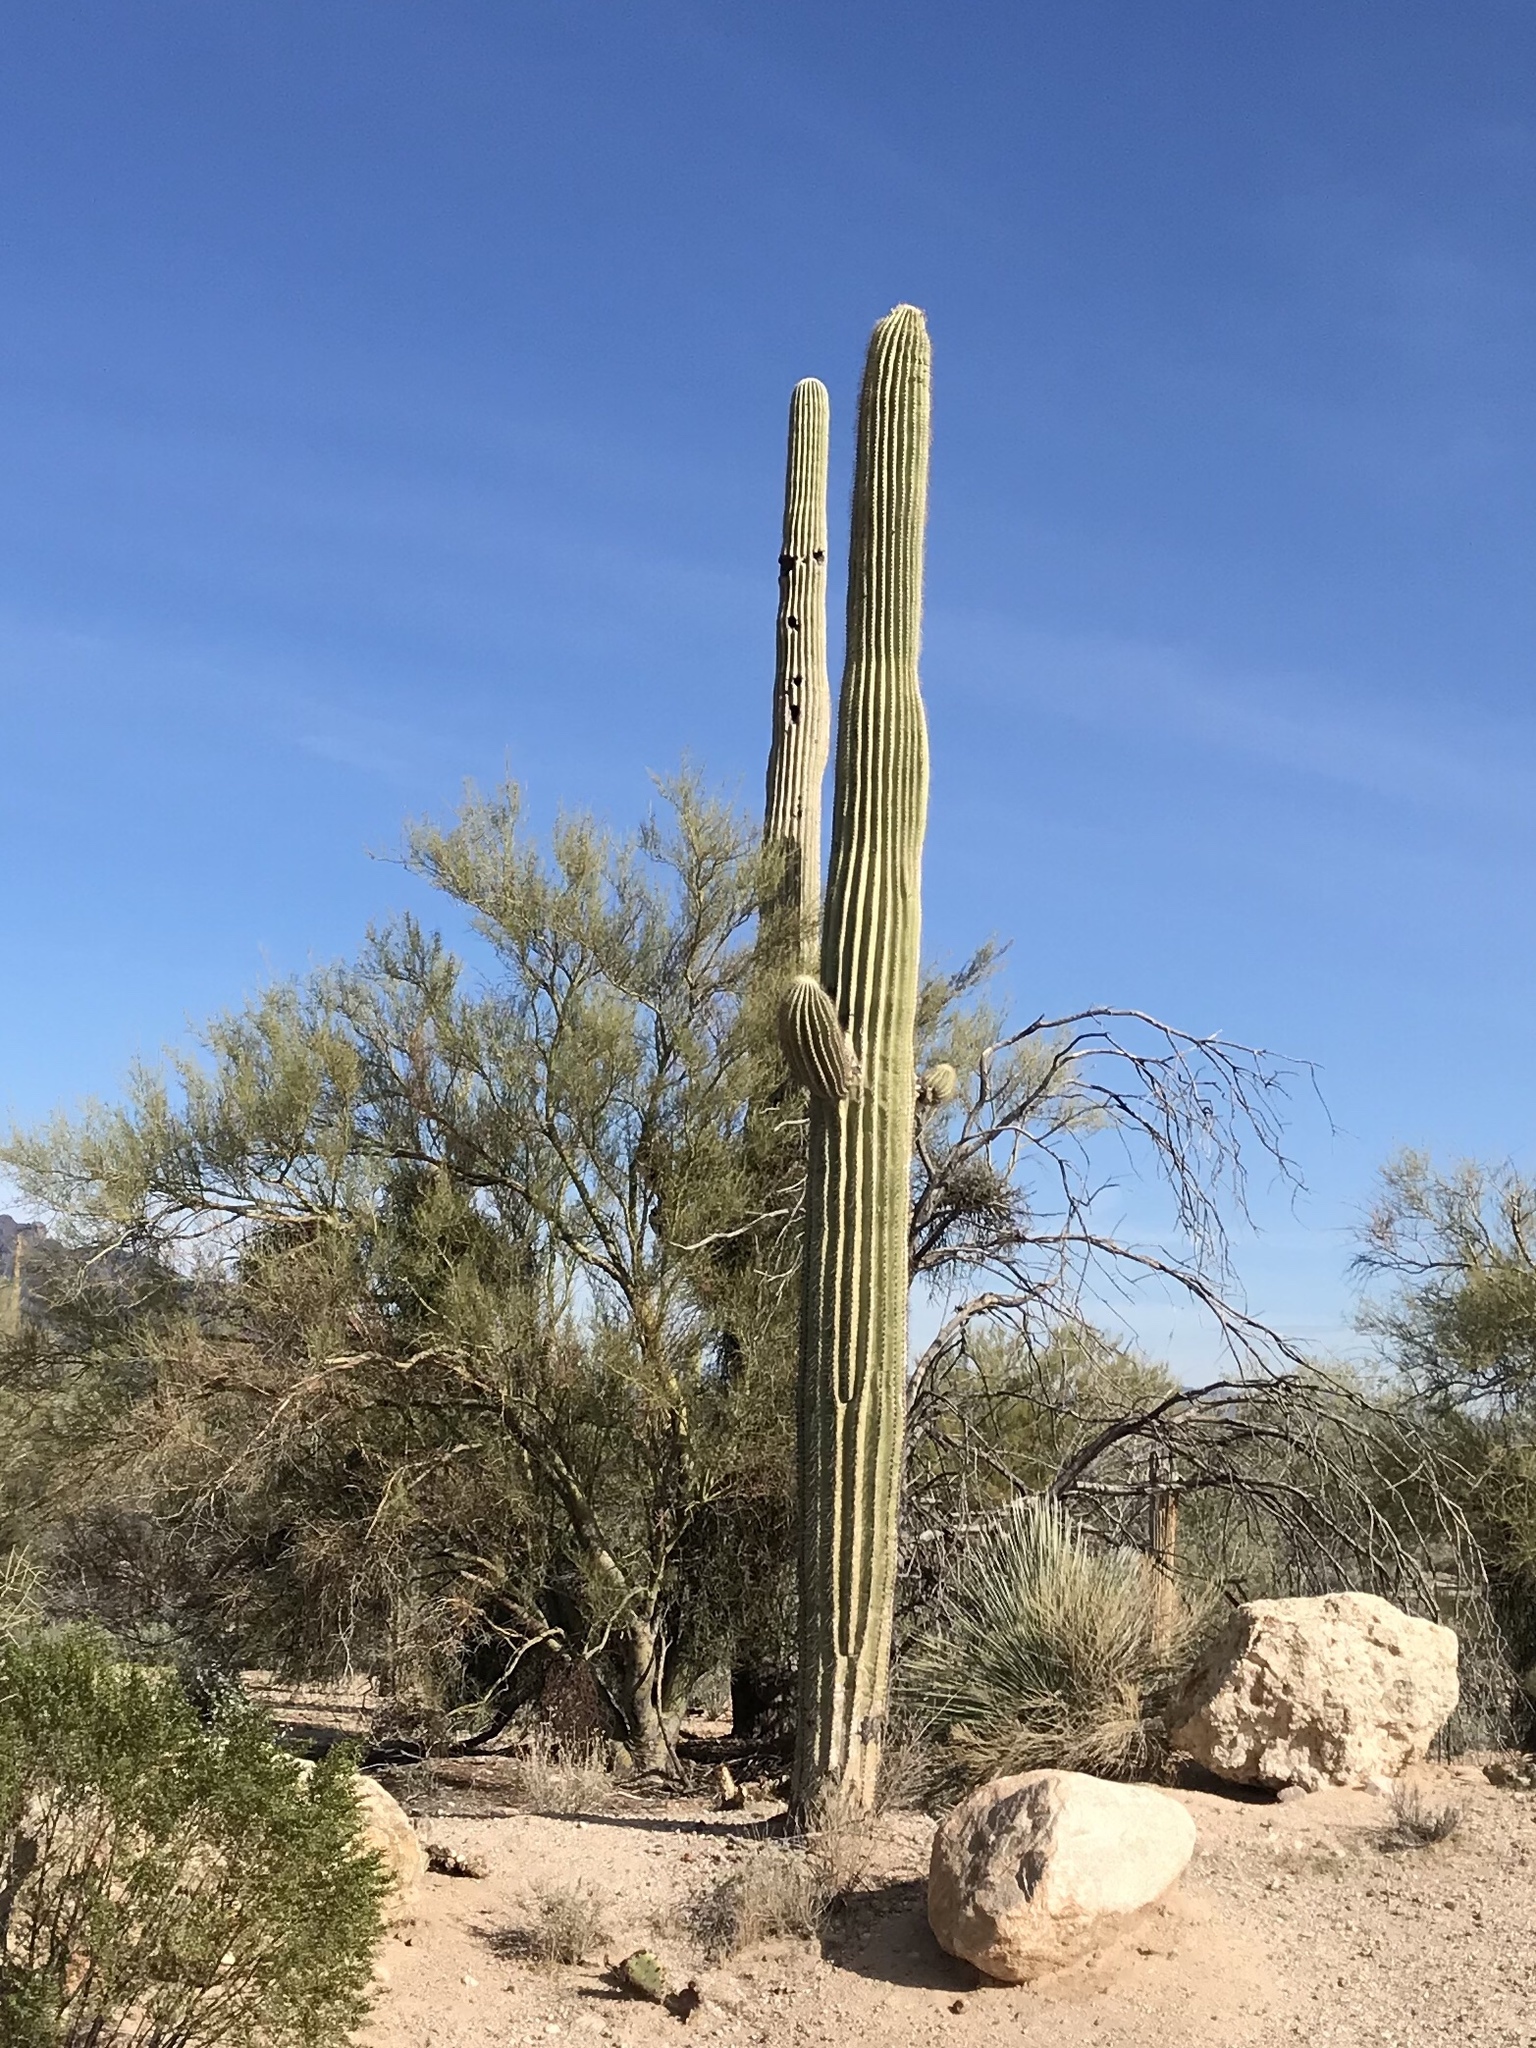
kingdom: Plantae
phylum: Tracheophyta
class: Magnoliopsida
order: Caryophyllales
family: Cactaceae
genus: Carnegiea
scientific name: Carnegiea gigantea
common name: Saguaro
